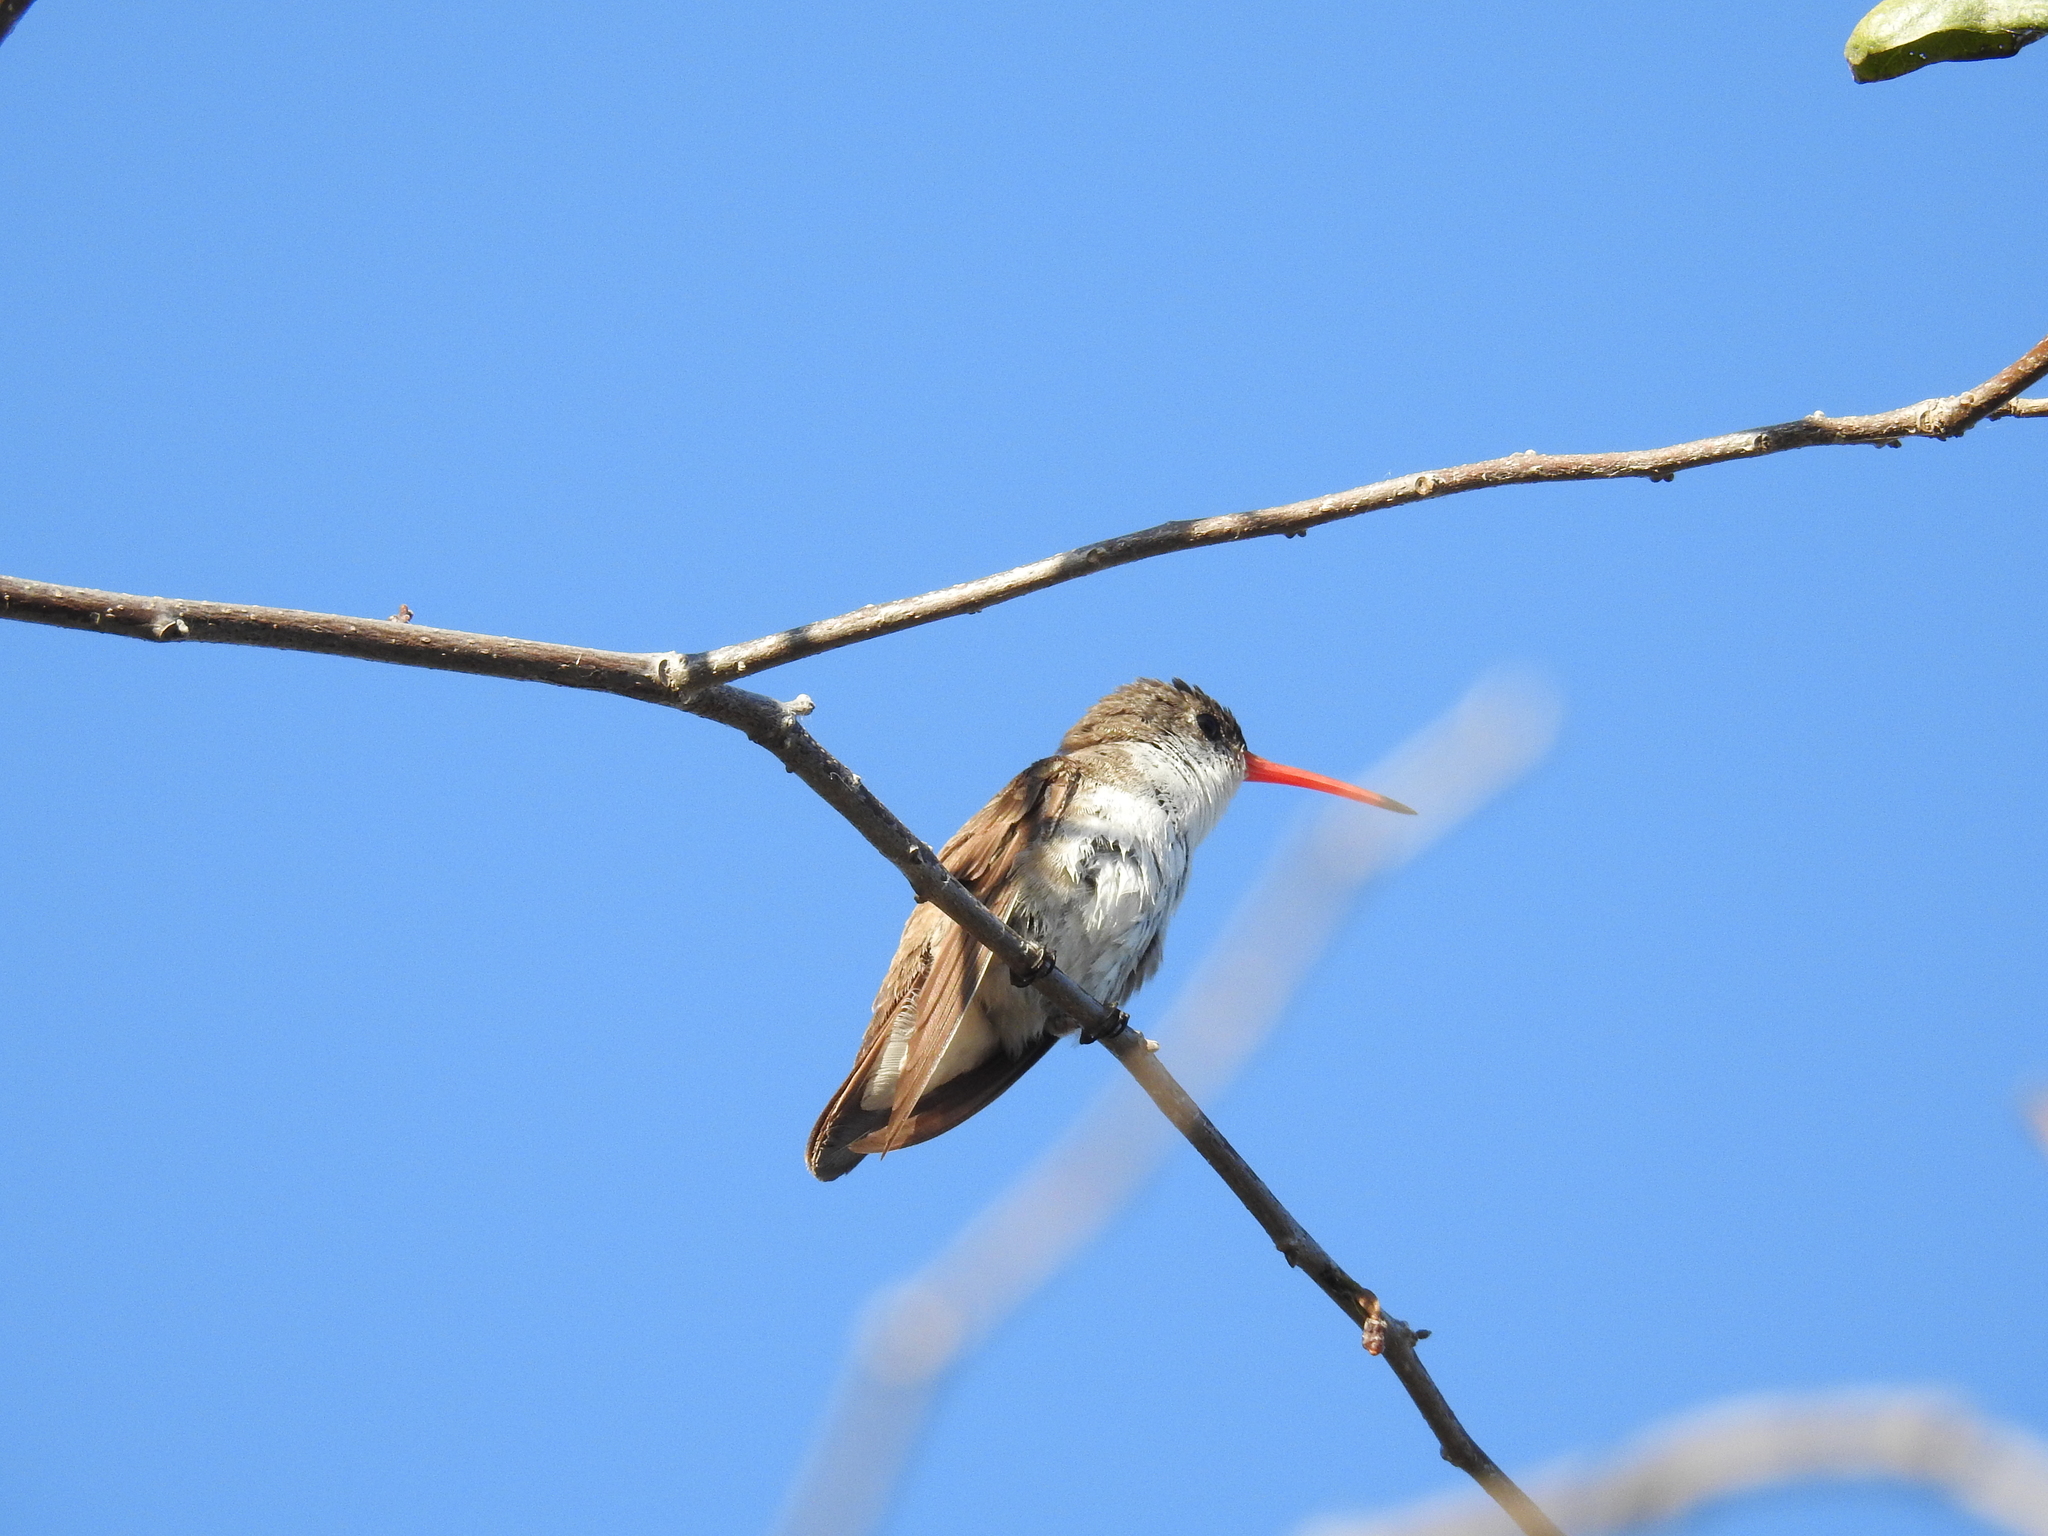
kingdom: Animalia
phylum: Chordata
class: Aves
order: Apodiformes
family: Trochilidae
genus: Leucolia
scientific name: Leucolia violiceps
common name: Violet-crowned hummingbird
